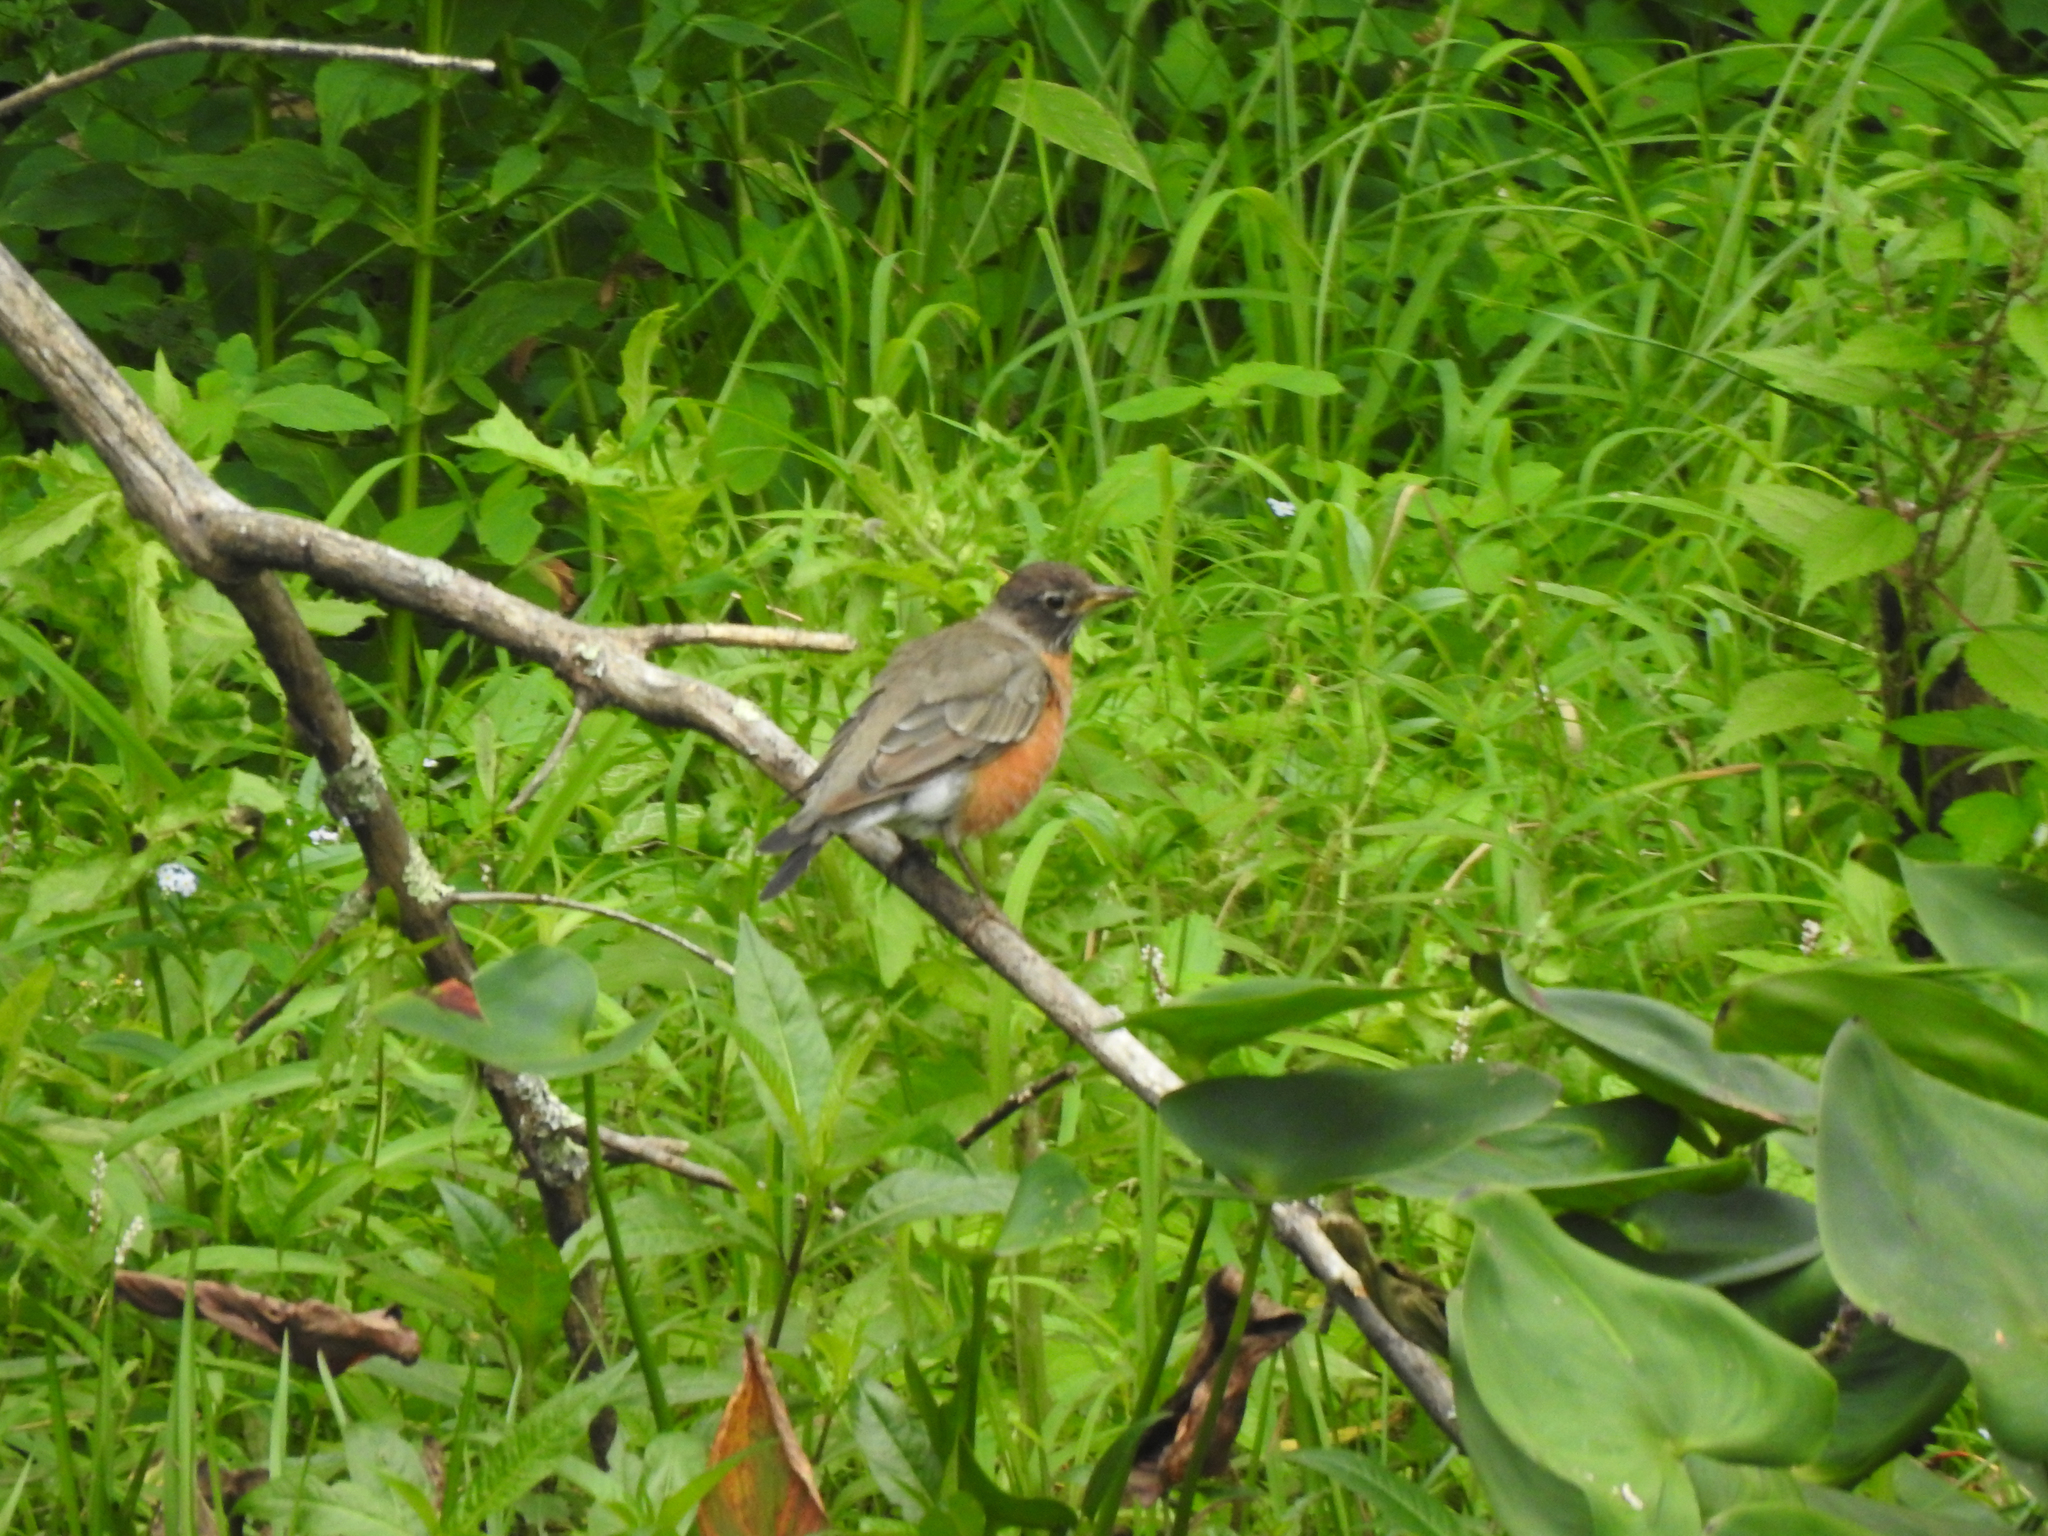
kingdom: Animalia
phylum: Chordata
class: Aves
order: Passeriformes
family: Turdidae
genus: Turdus
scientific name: Turdus migratorius
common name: American robin
